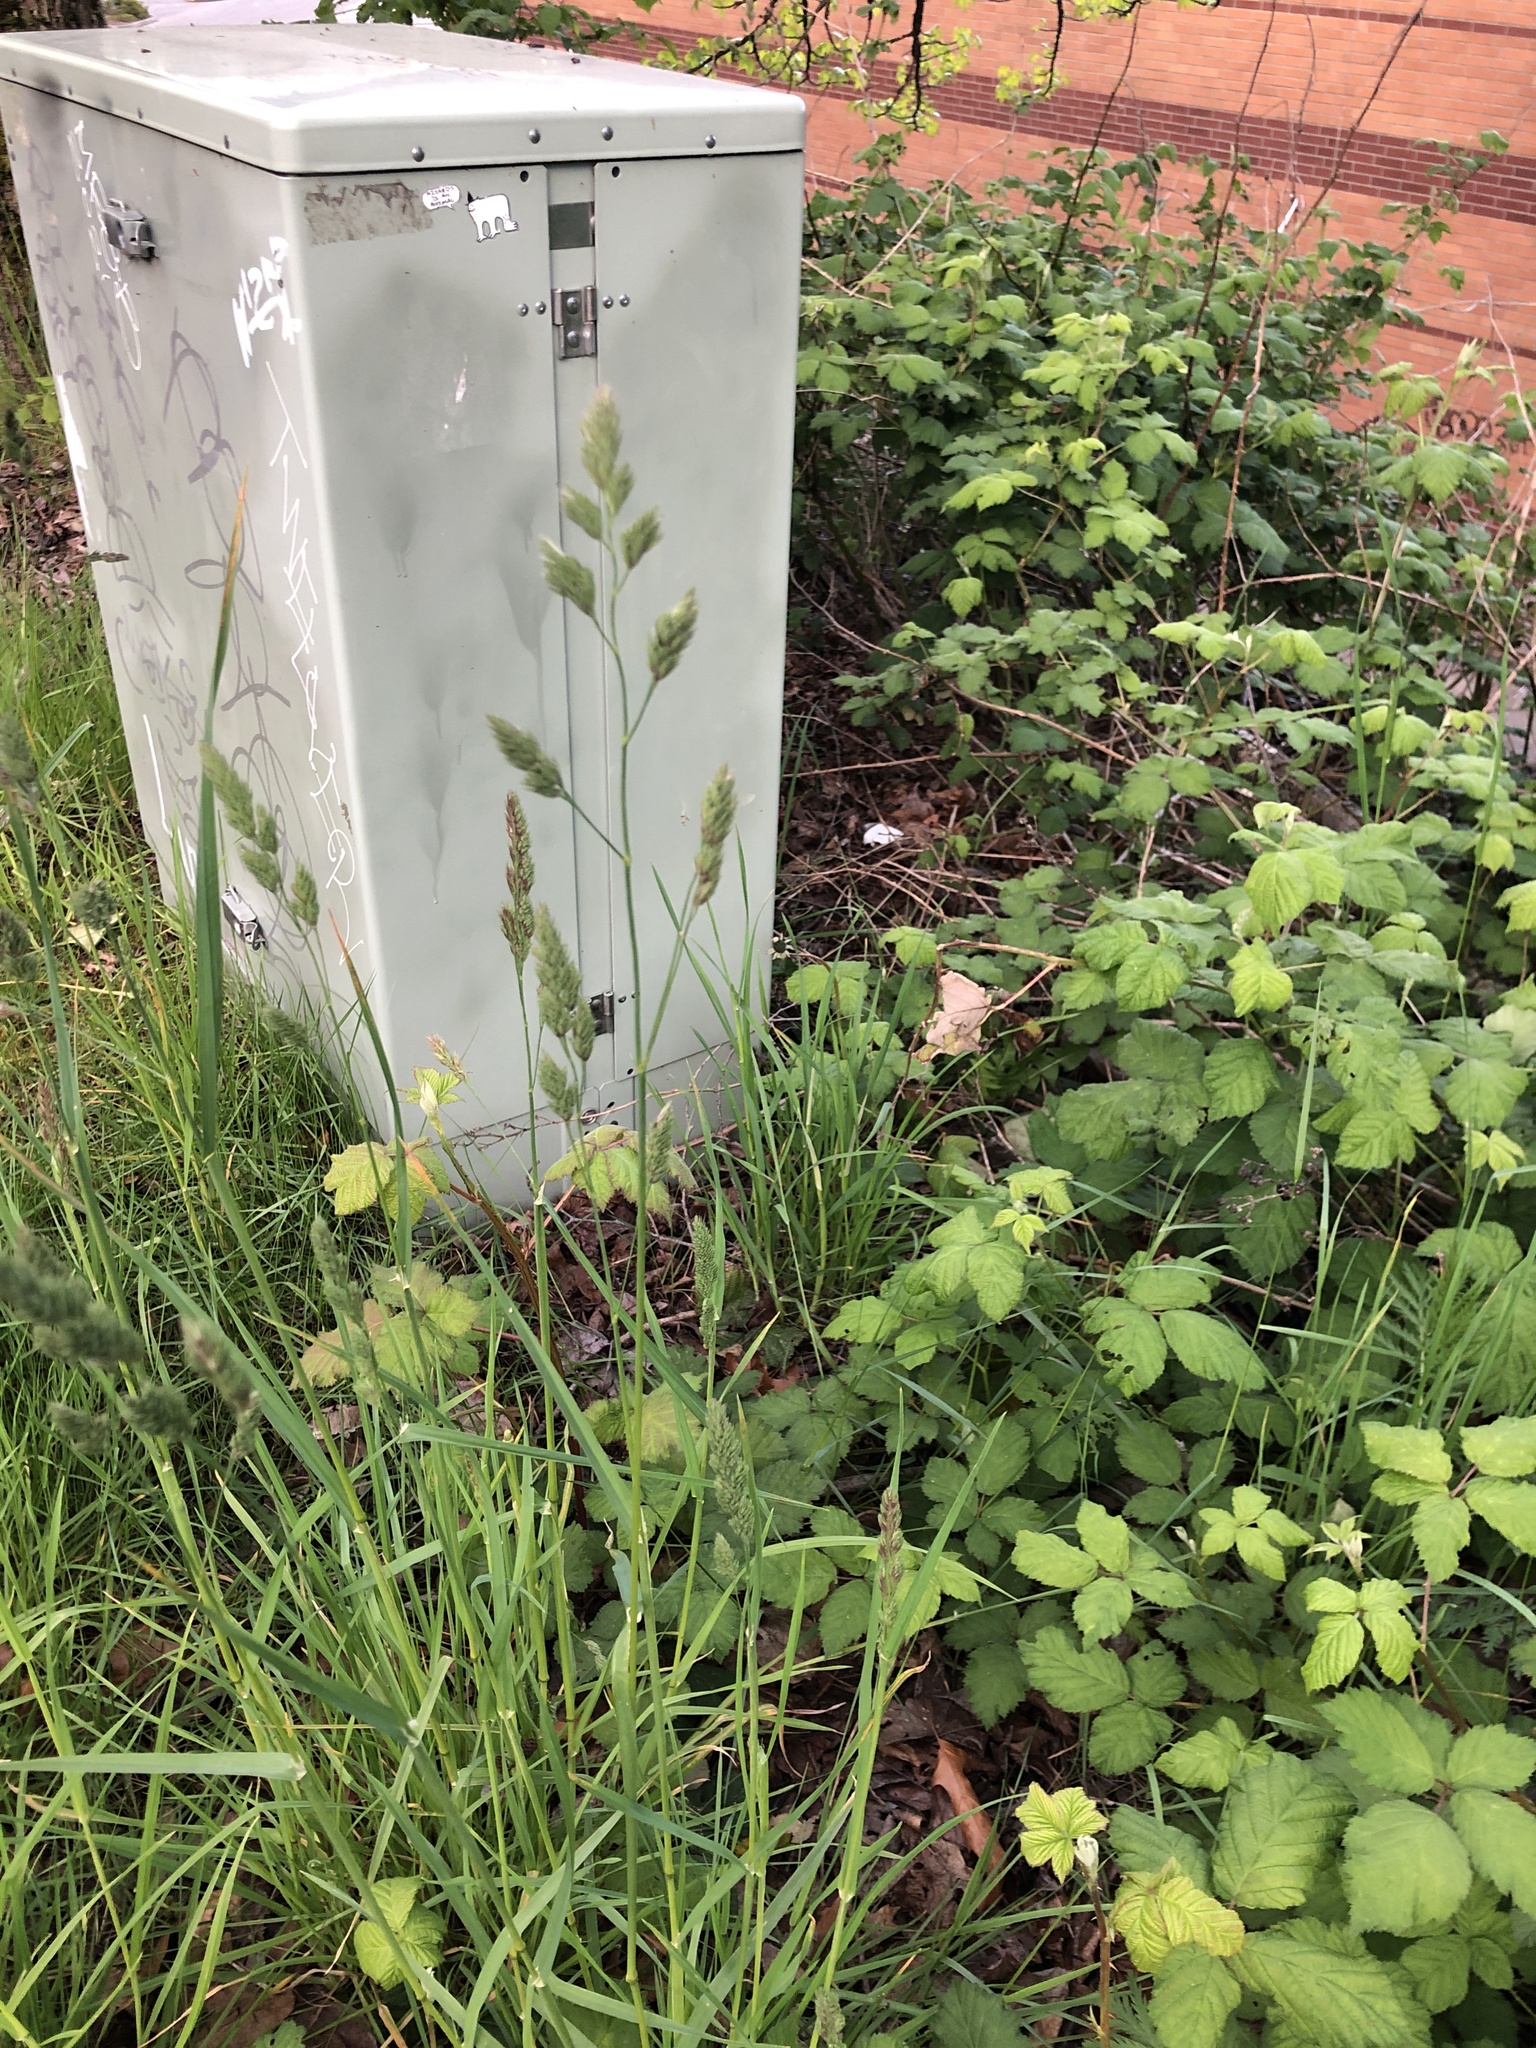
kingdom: Plantae
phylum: Tracheophyta
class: Liliopsida
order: Poales
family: Poaceae
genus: Dactylis
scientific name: Dactylis glomerata
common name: Orchardgrass
